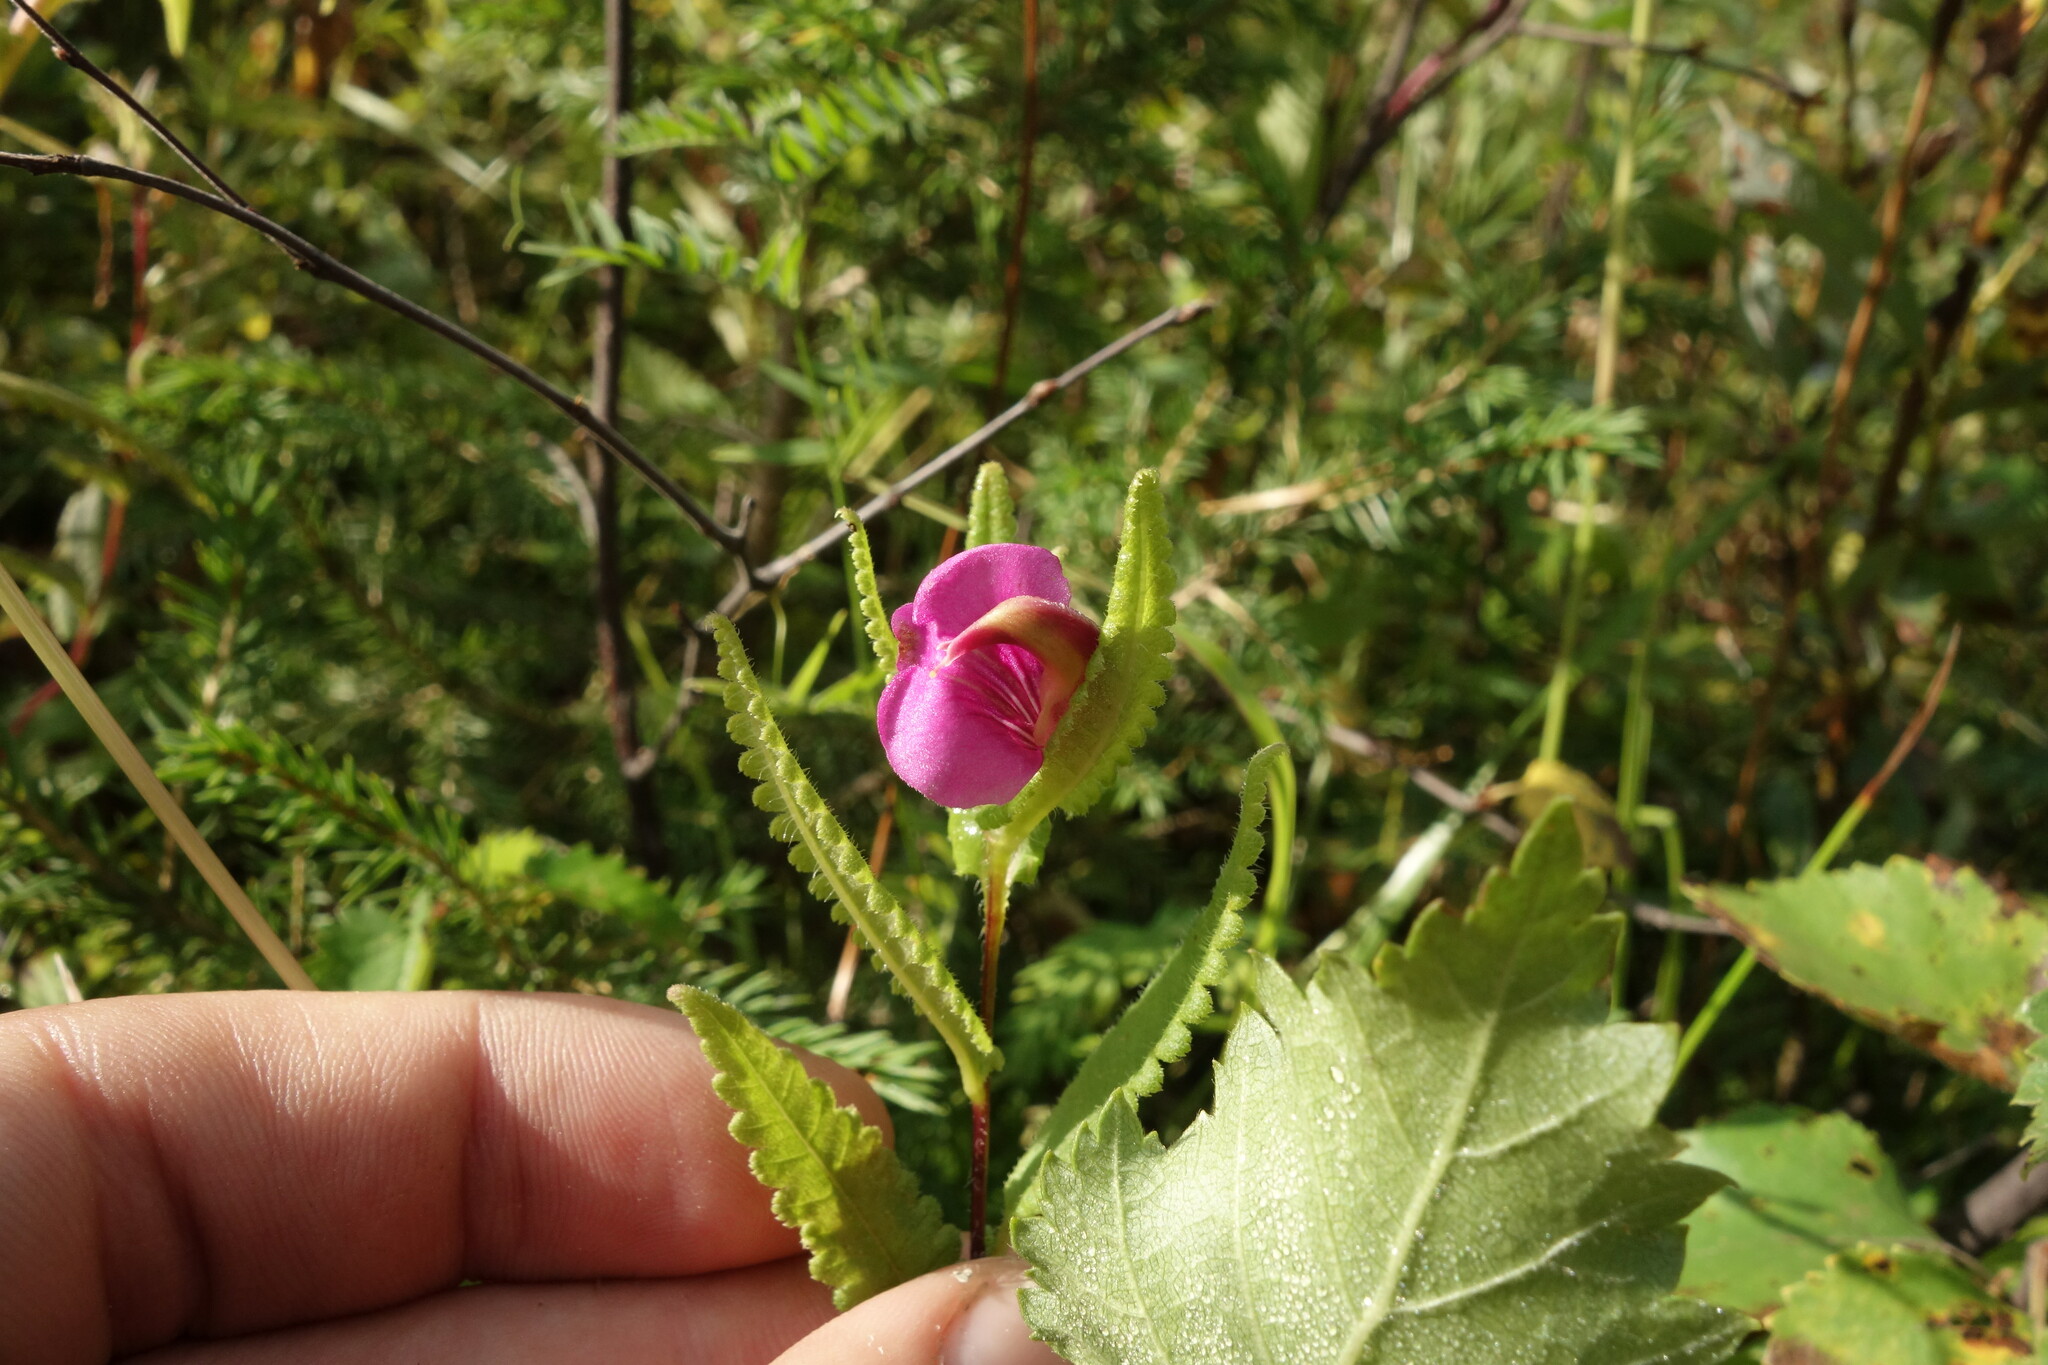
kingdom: Plantae
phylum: Tracheophyta
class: Magnoliopsida
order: Lamiales
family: Orobanchaceae
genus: Pedicularis
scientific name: Pedicularis resupinata
